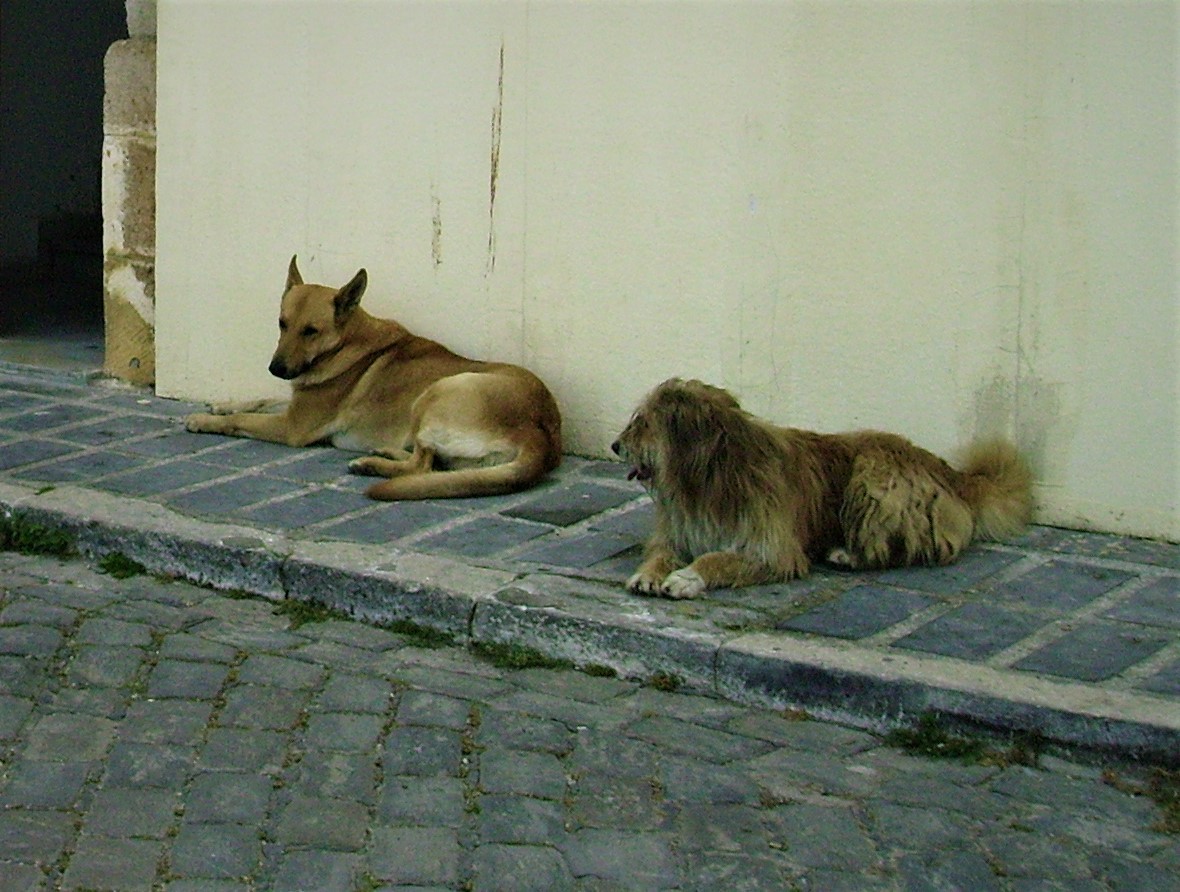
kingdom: Animalia
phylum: Chordata
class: Mammalia
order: Carnivora
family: Canidae
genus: Canis
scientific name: Canis lupus
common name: Gray wolf
